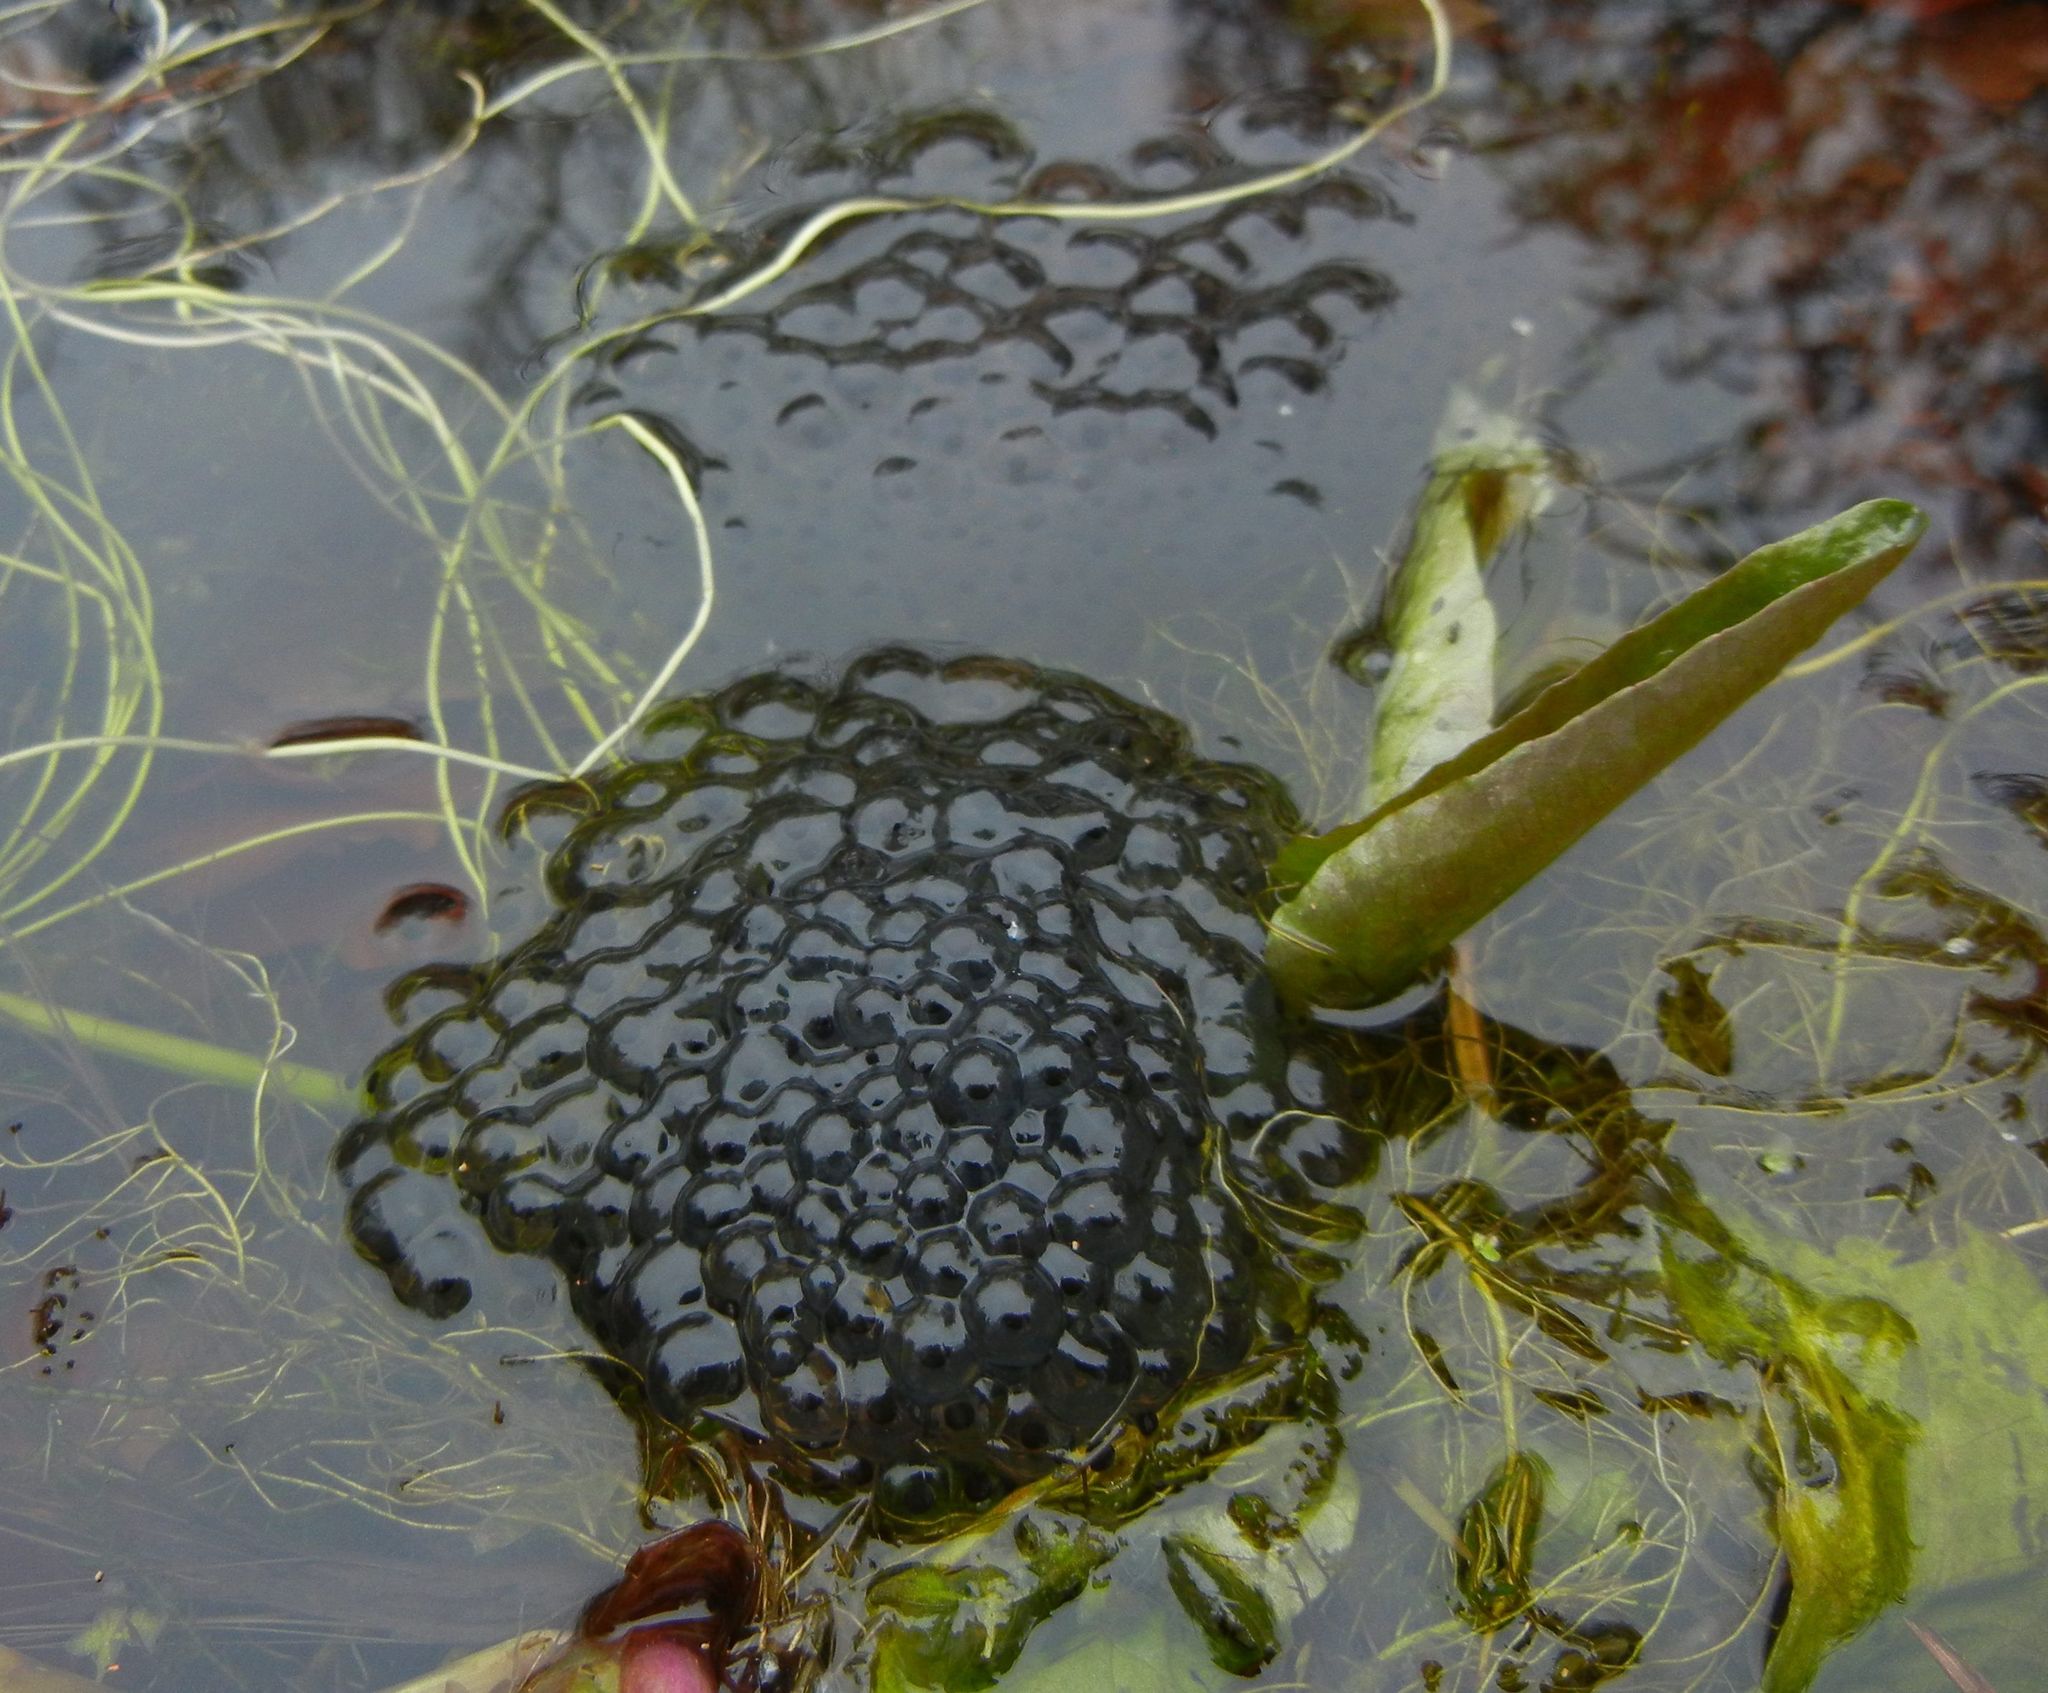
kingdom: Animalia
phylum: Chordata
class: Amphibia
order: Anura
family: Ranidae
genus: Rana
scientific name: Rana temporaria
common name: Common frog
